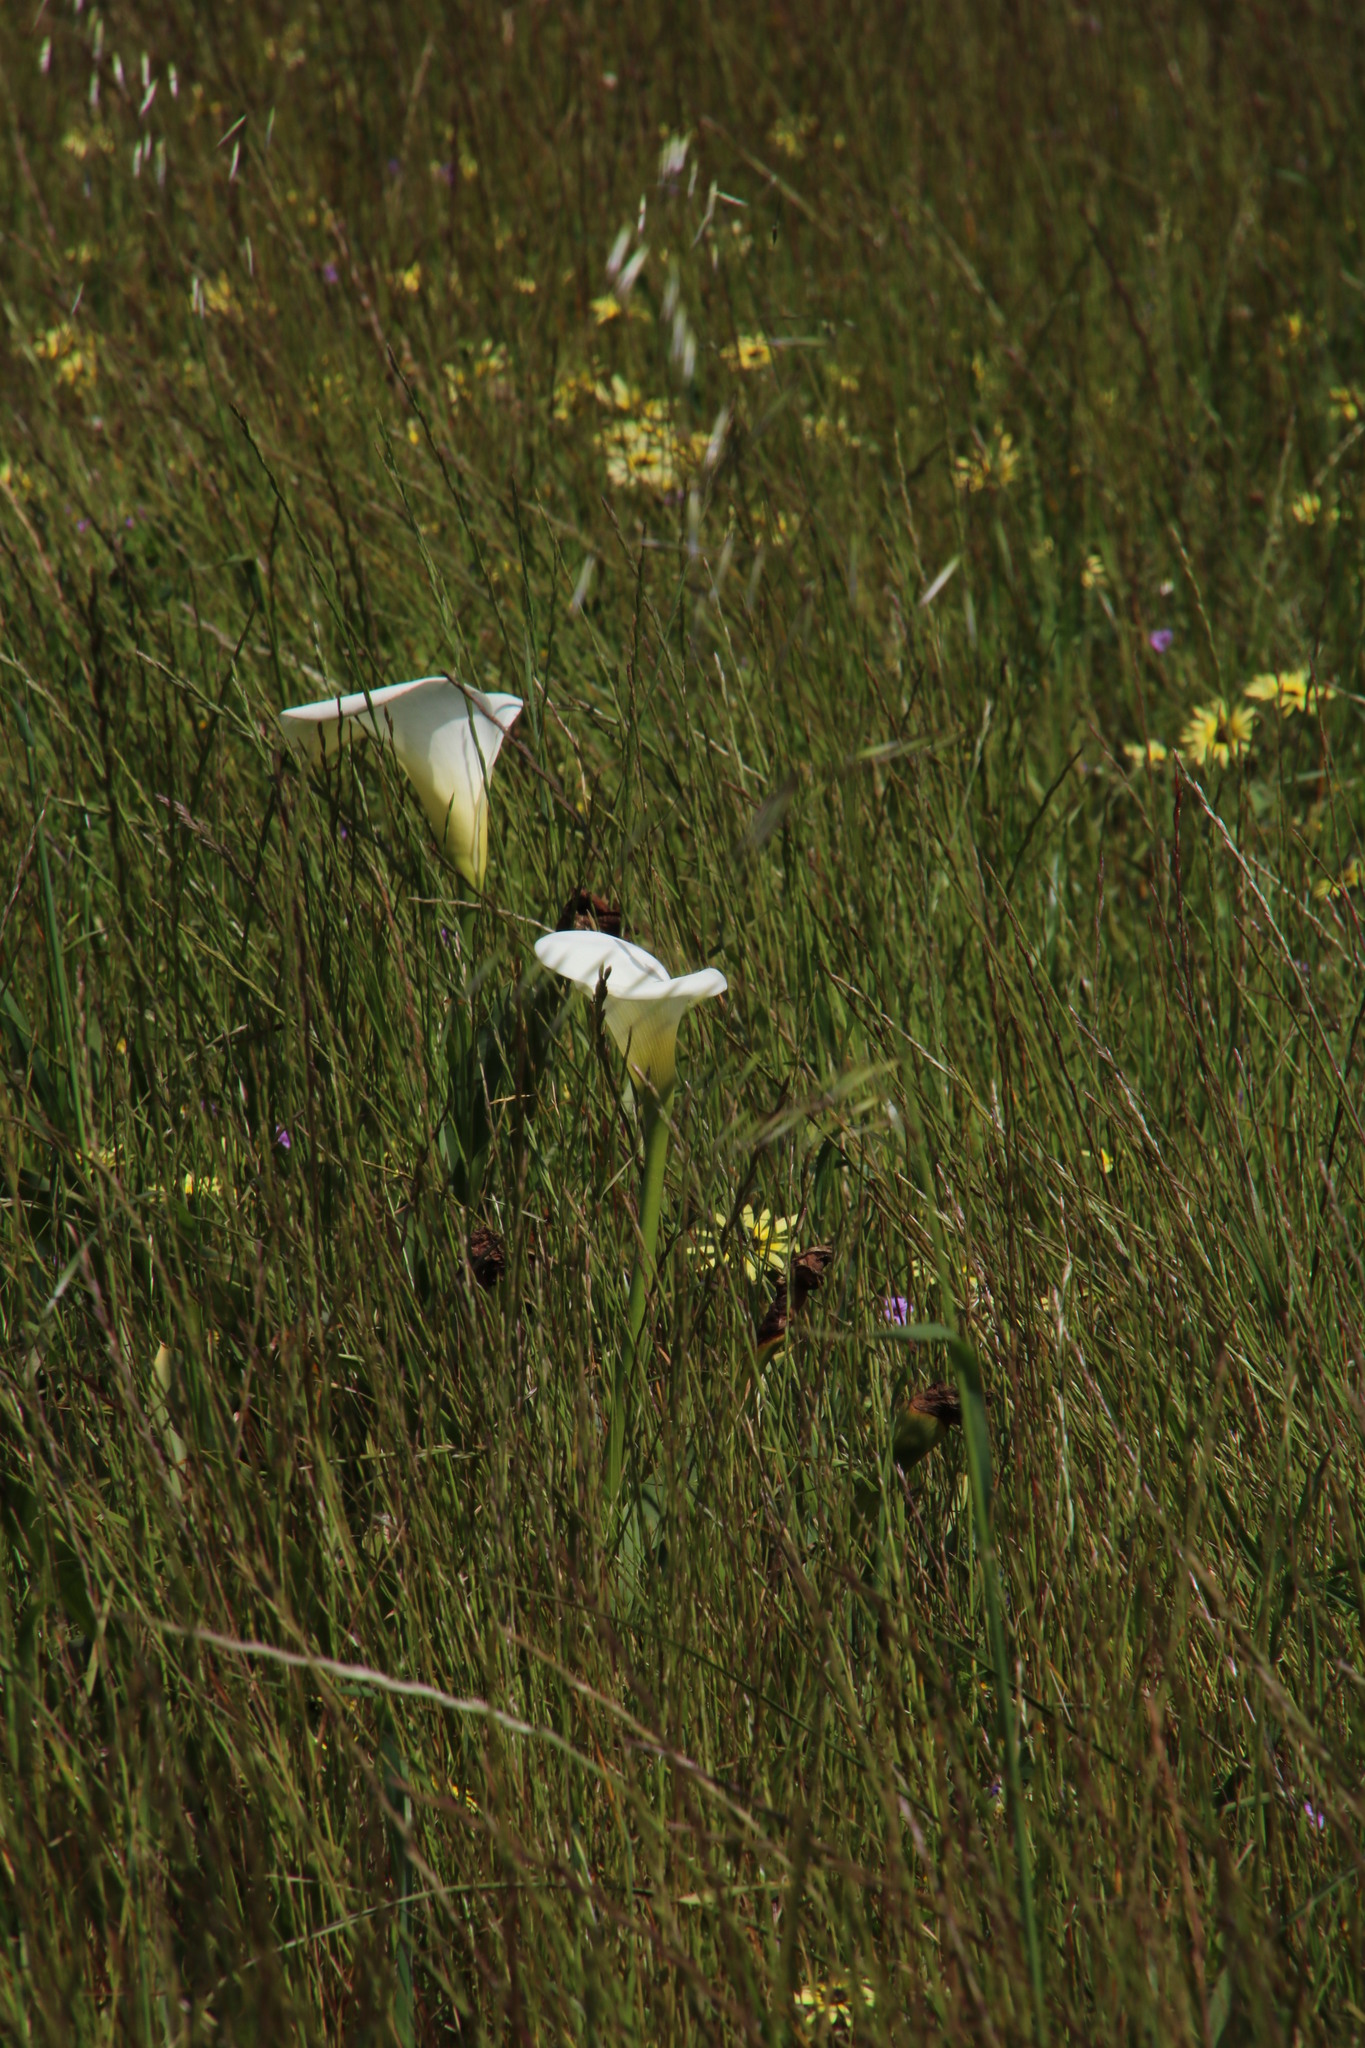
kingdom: Plantae
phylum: Tracheophyta
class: Liliopsida
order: Alismatales
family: Araceae
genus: Zantedeschia
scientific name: Zantedeschia aethiopica
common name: Altar-lily
